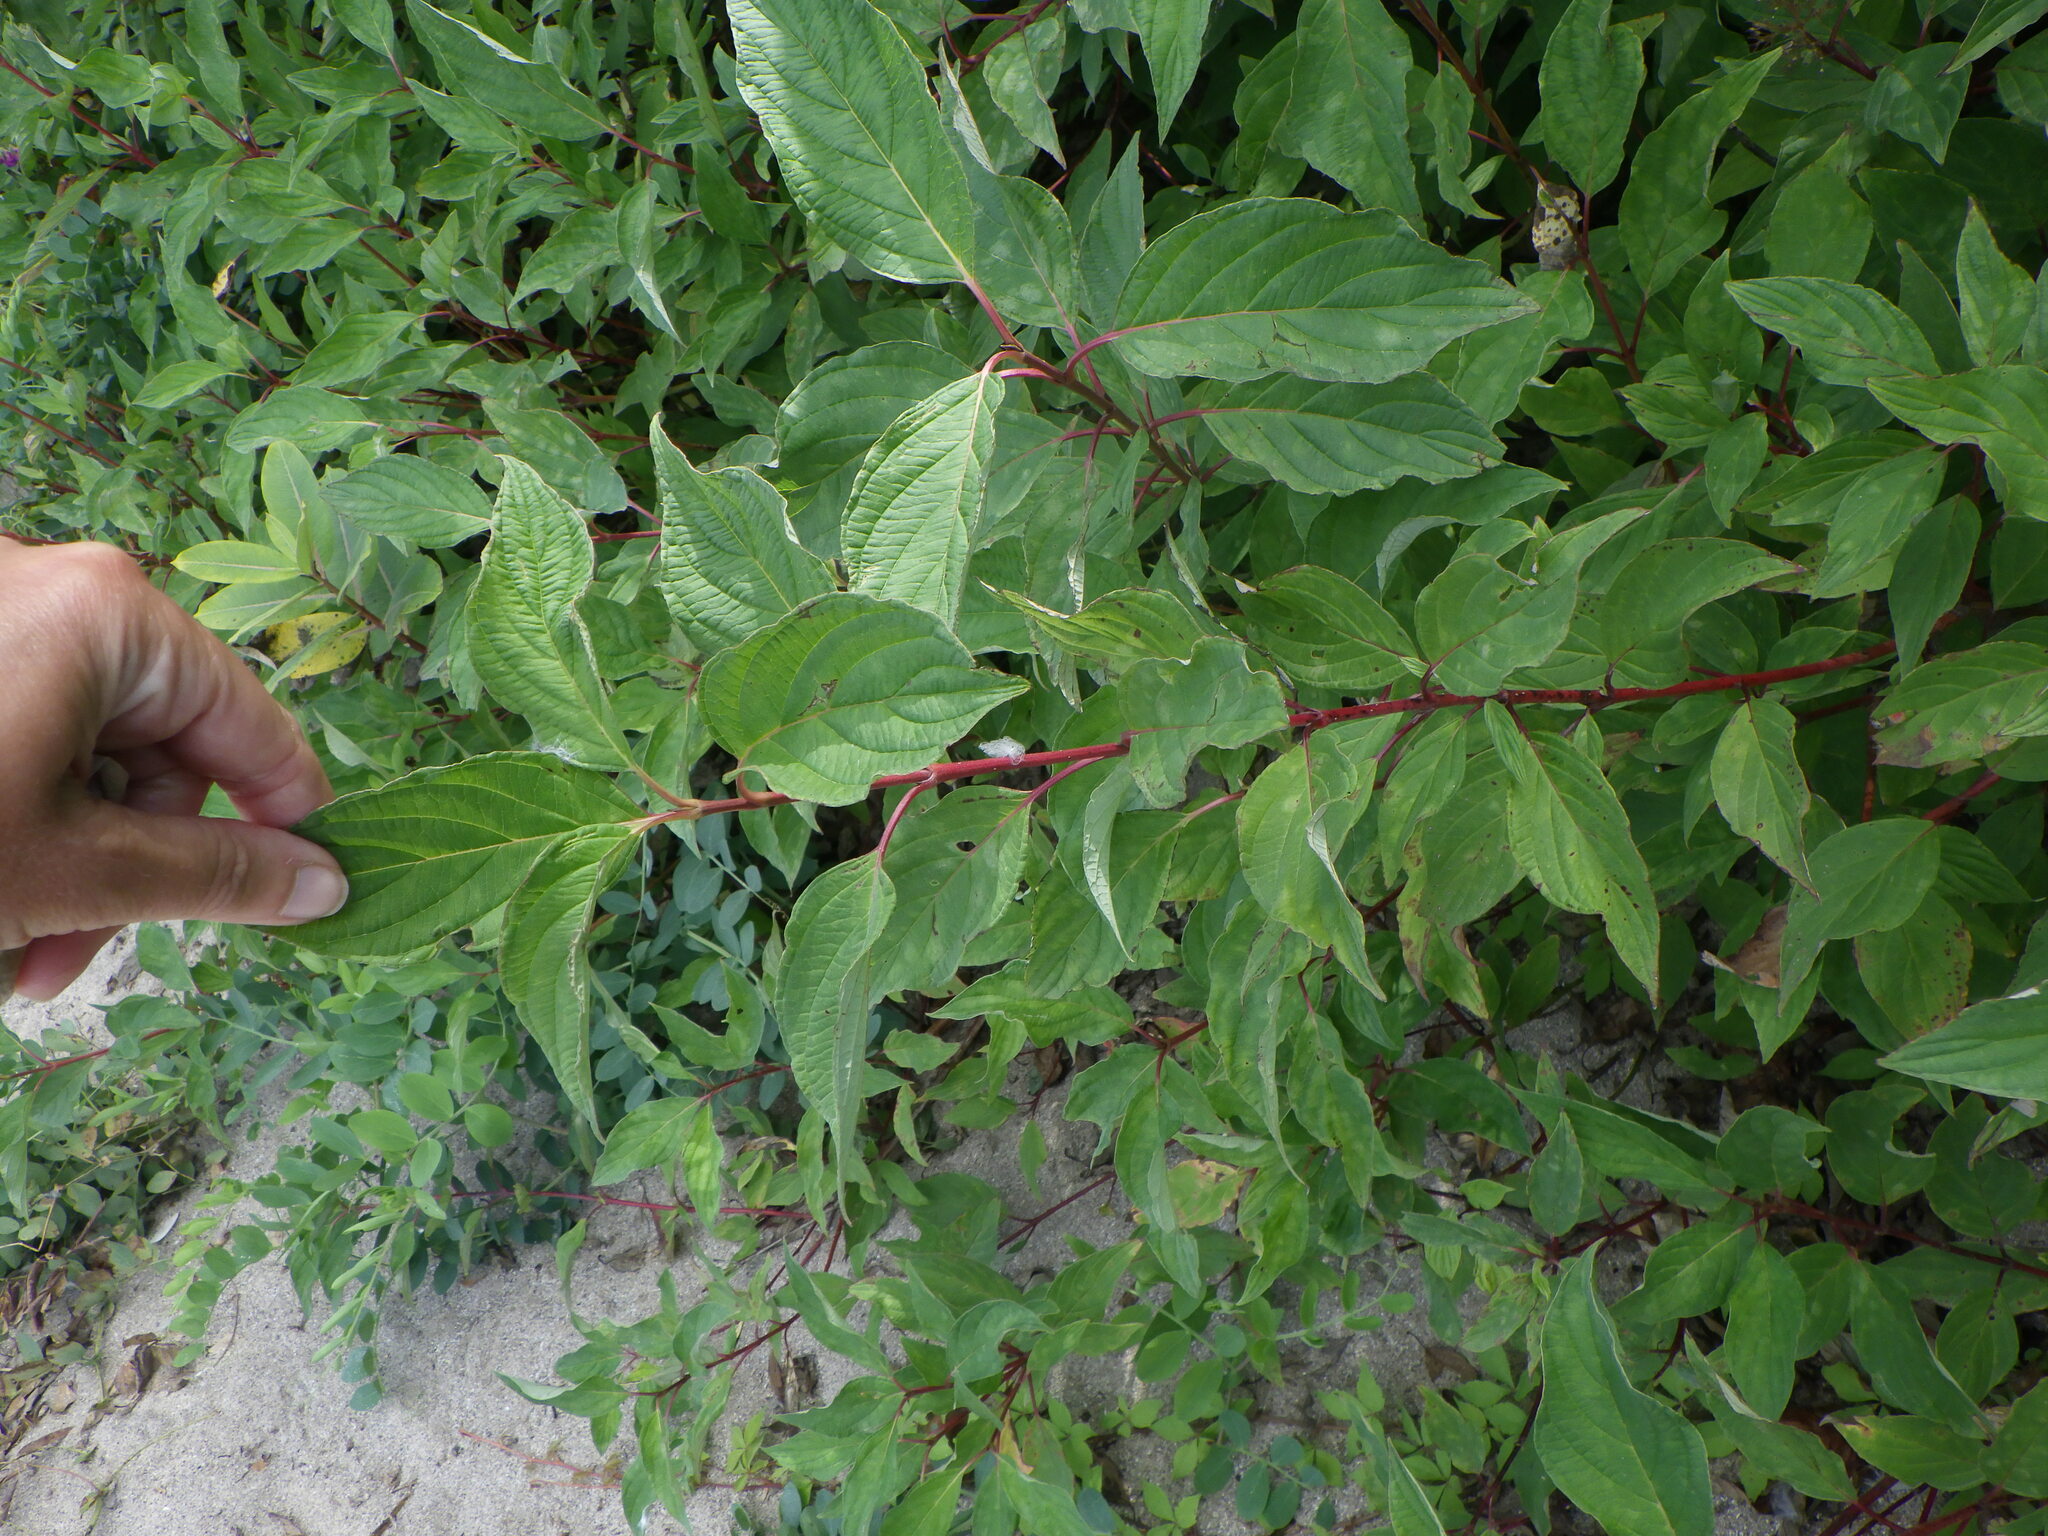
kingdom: Plantae
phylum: Tracheophyta
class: Magnoliopsida
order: Cornales
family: Cornaceae
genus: Cornus
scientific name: Cornus sericea
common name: Red-osier dogwood
